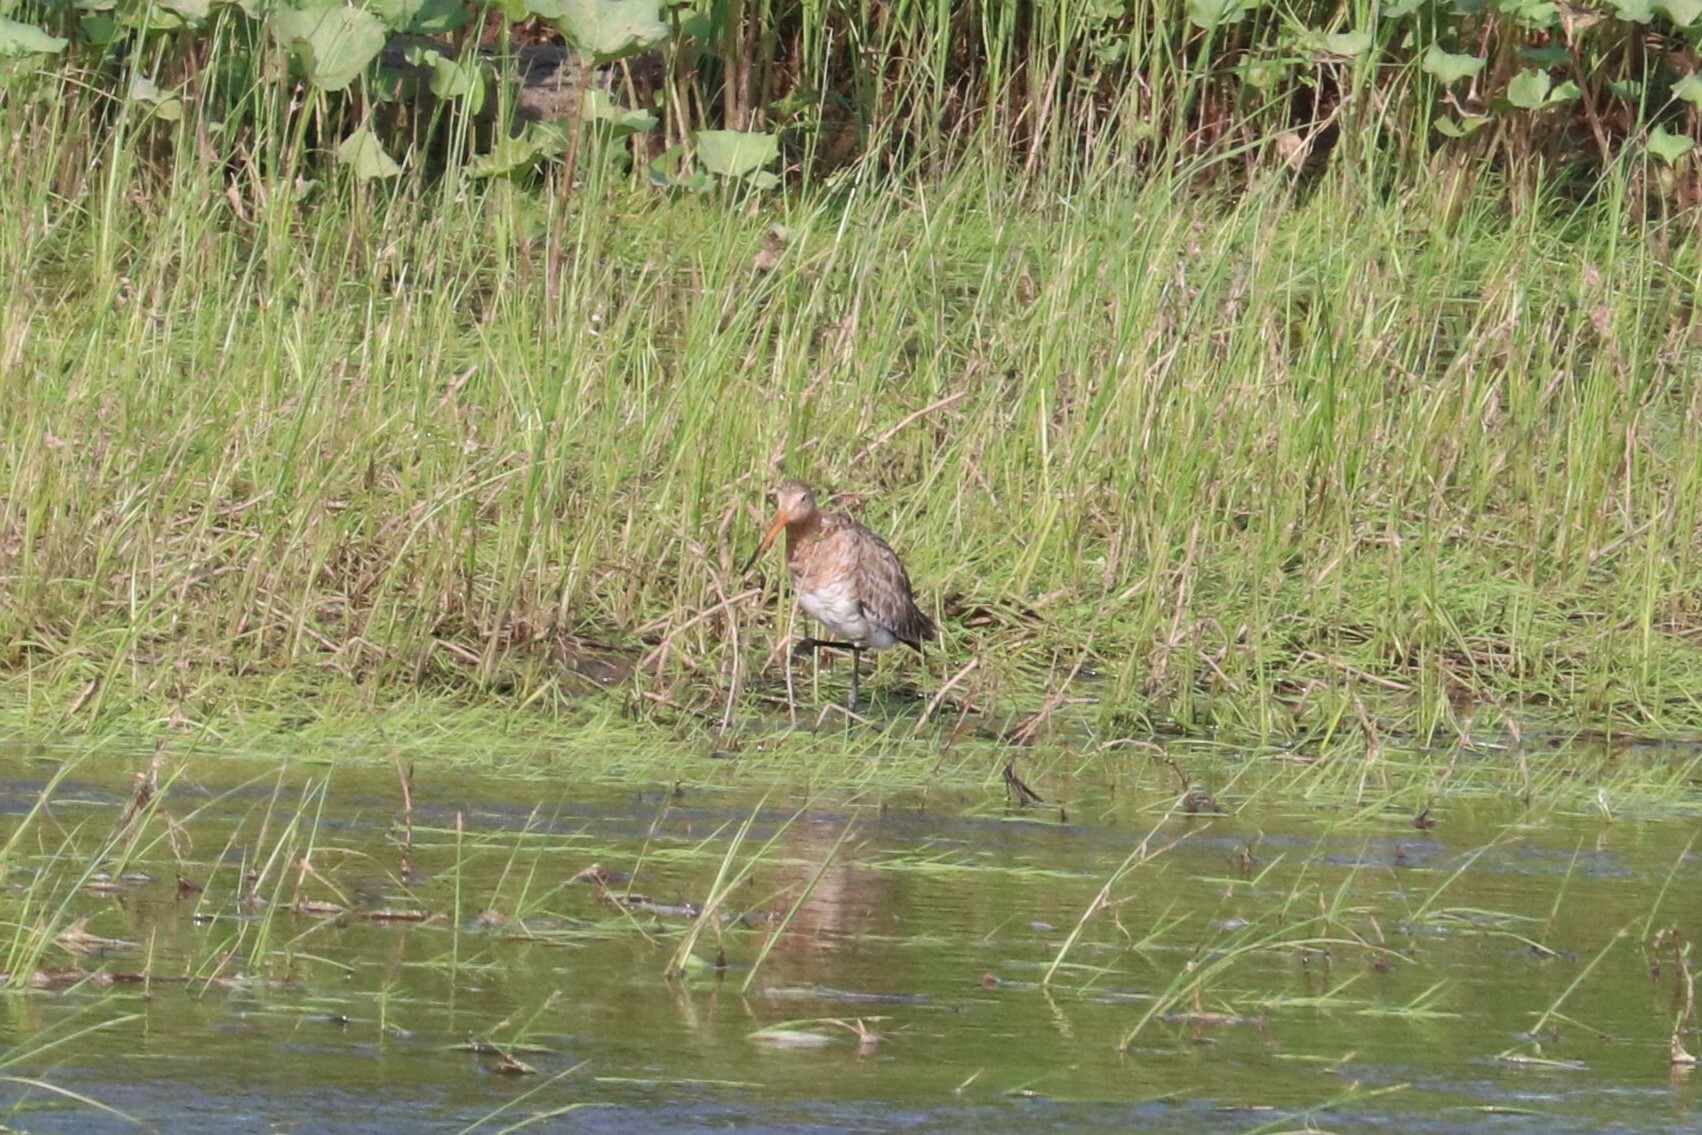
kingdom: Animalia
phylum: Chordata
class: Aves
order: Charadriiformes
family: Scolopacidae
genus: Limosa
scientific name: Limosa limosa
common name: Black-tailed godwit
